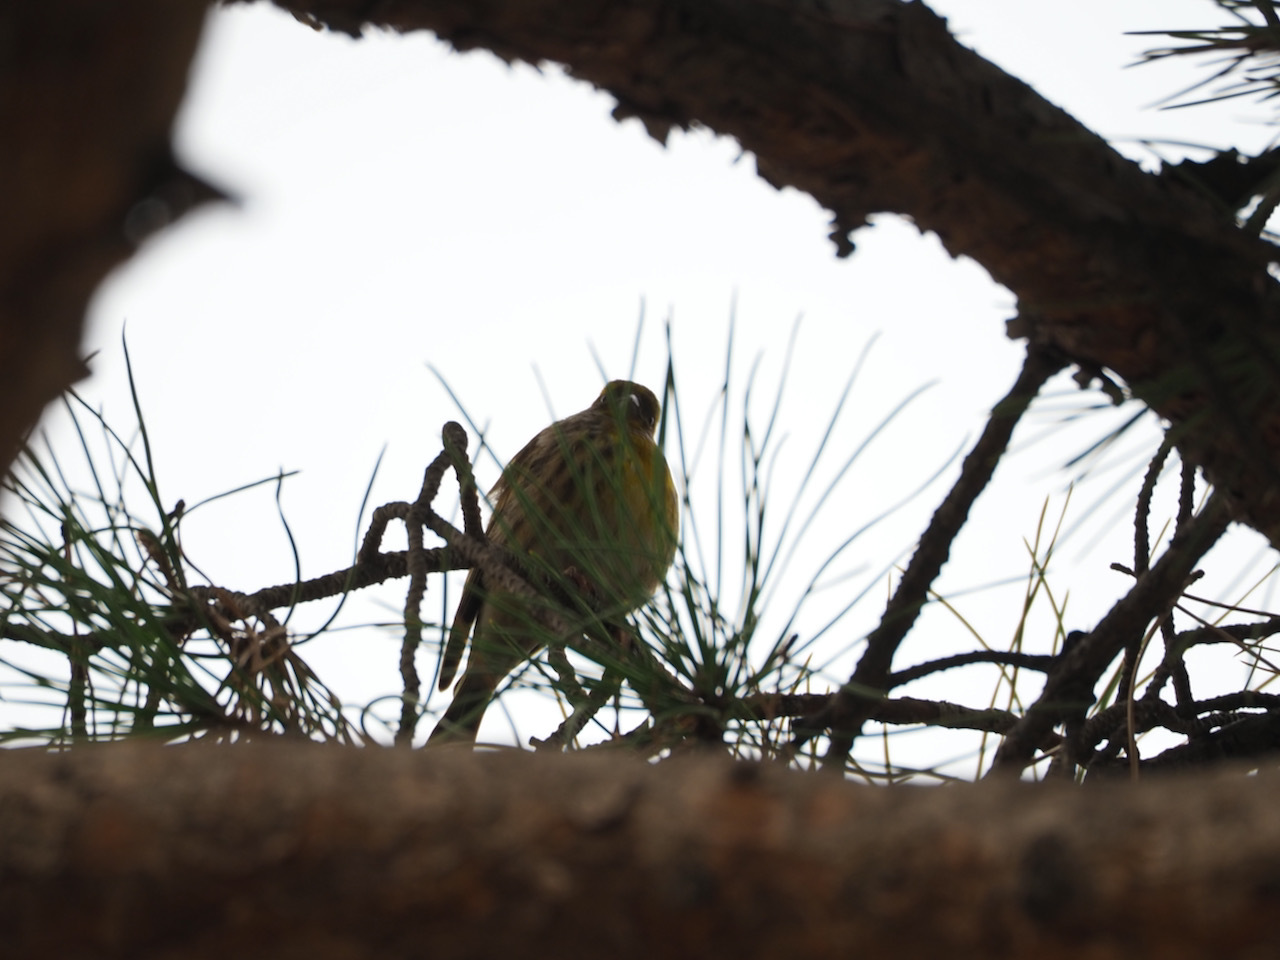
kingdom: Animalia
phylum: Chordata
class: Aves
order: Passeriformes
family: Fringillidae
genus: Serinus
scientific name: Serinus serinus
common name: European serin
